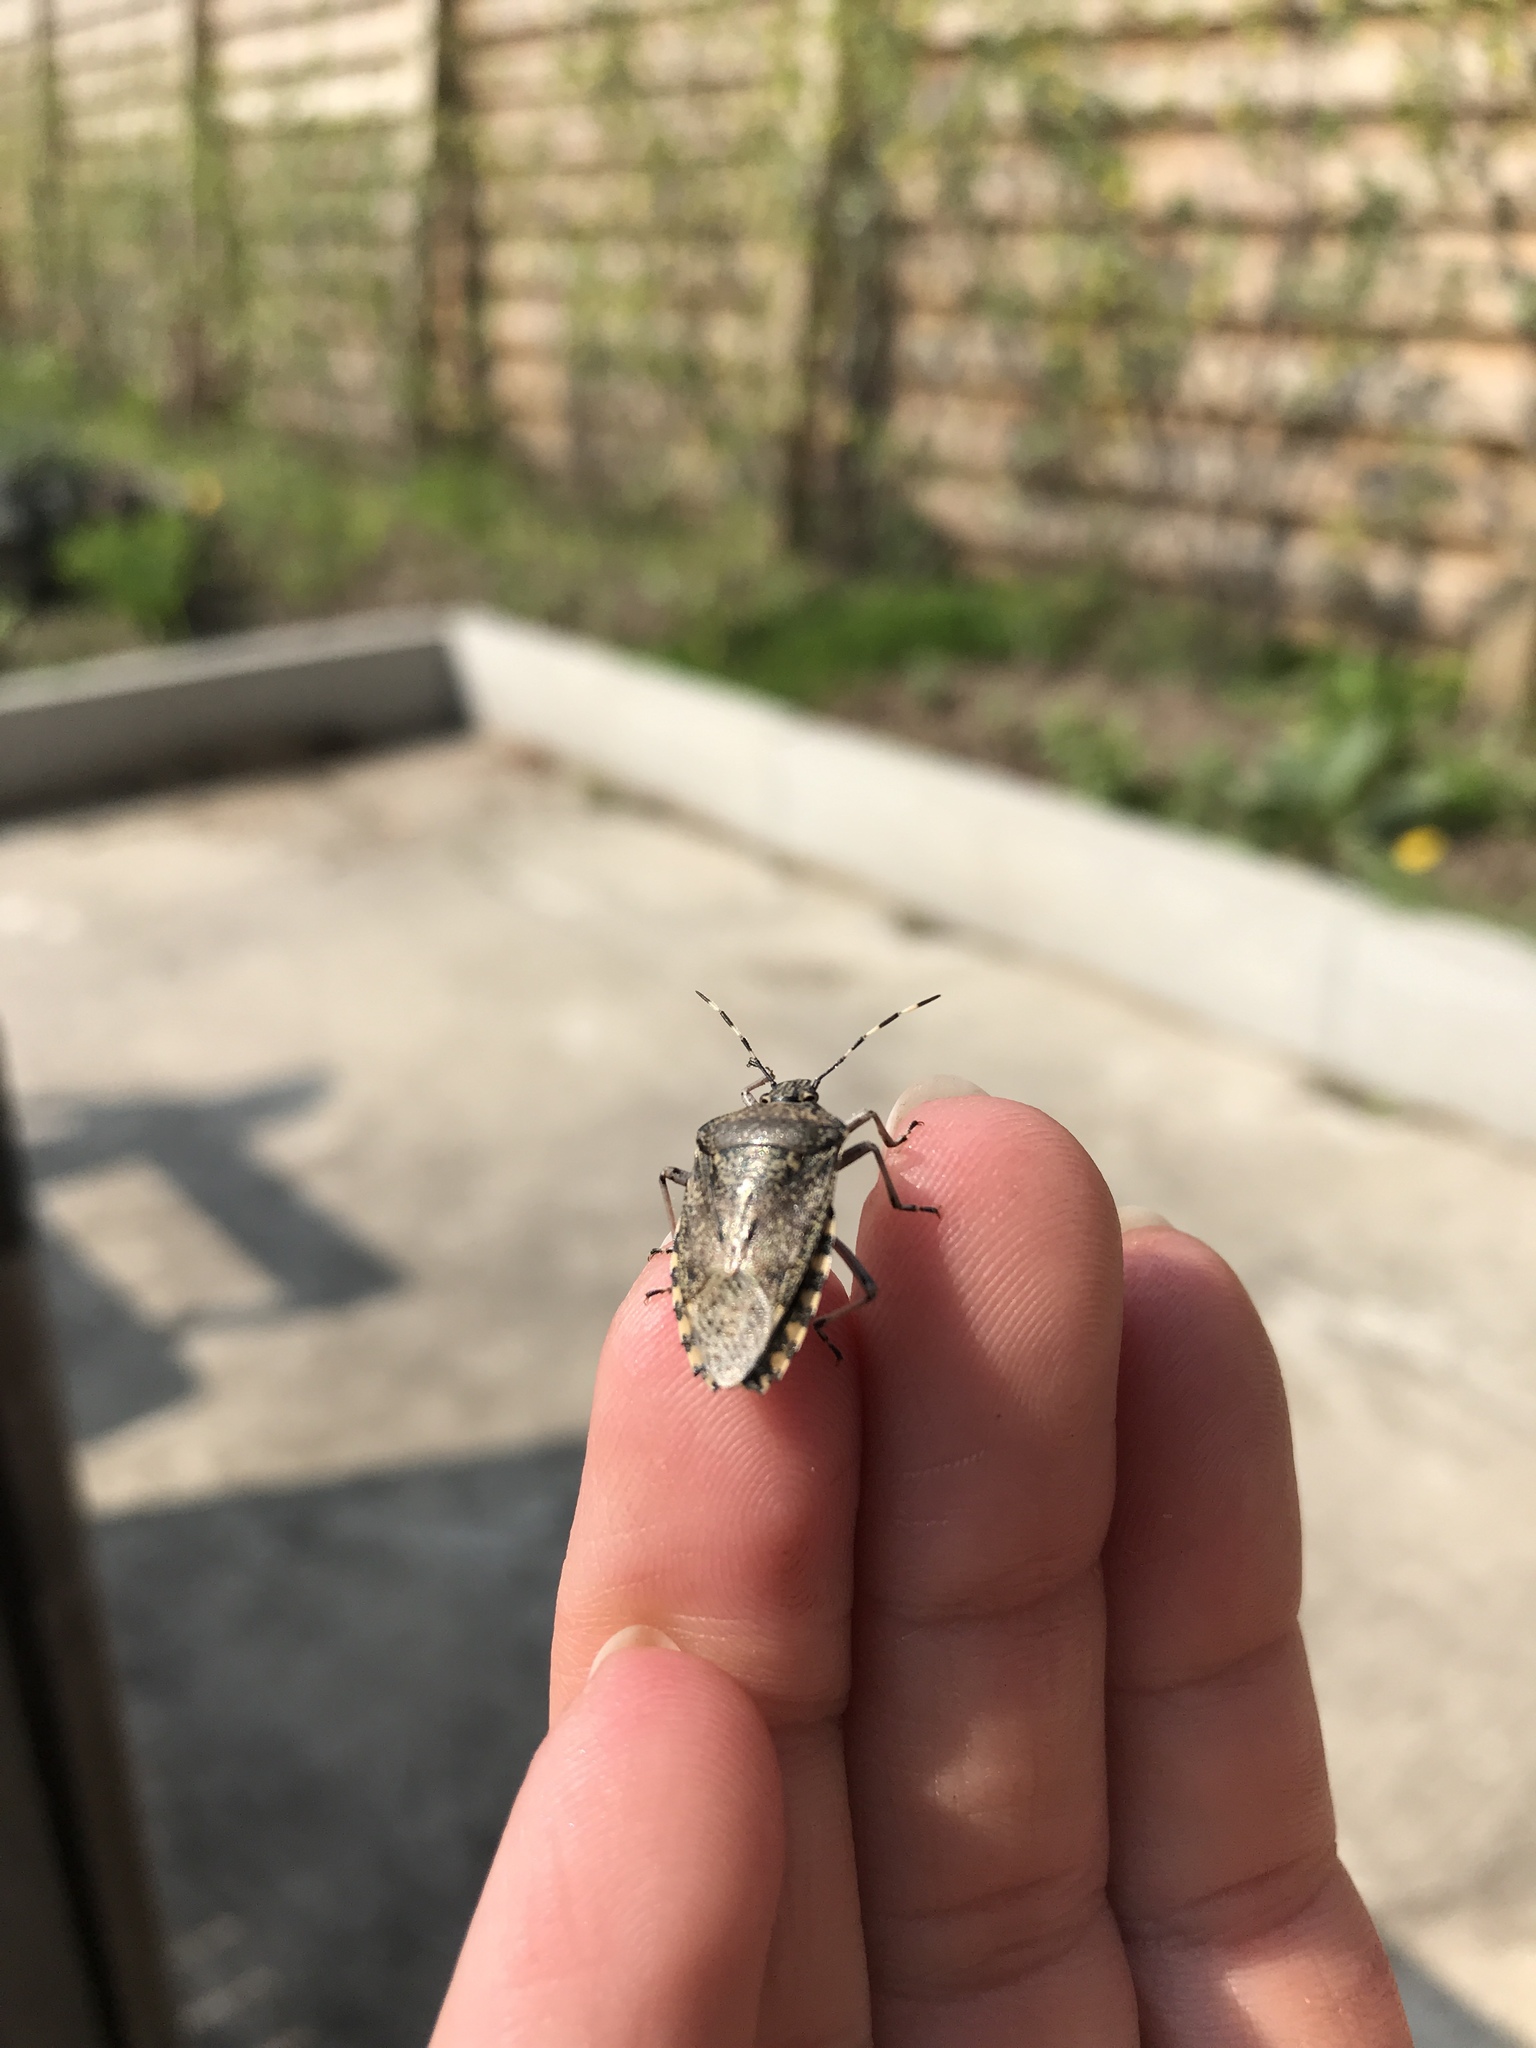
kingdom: Animalia
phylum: Arthropoda
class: Insecta
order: Hemiptera
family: Pentatomidae
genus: Rhaphigaster
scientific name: Rhaphigaster nebulosa
